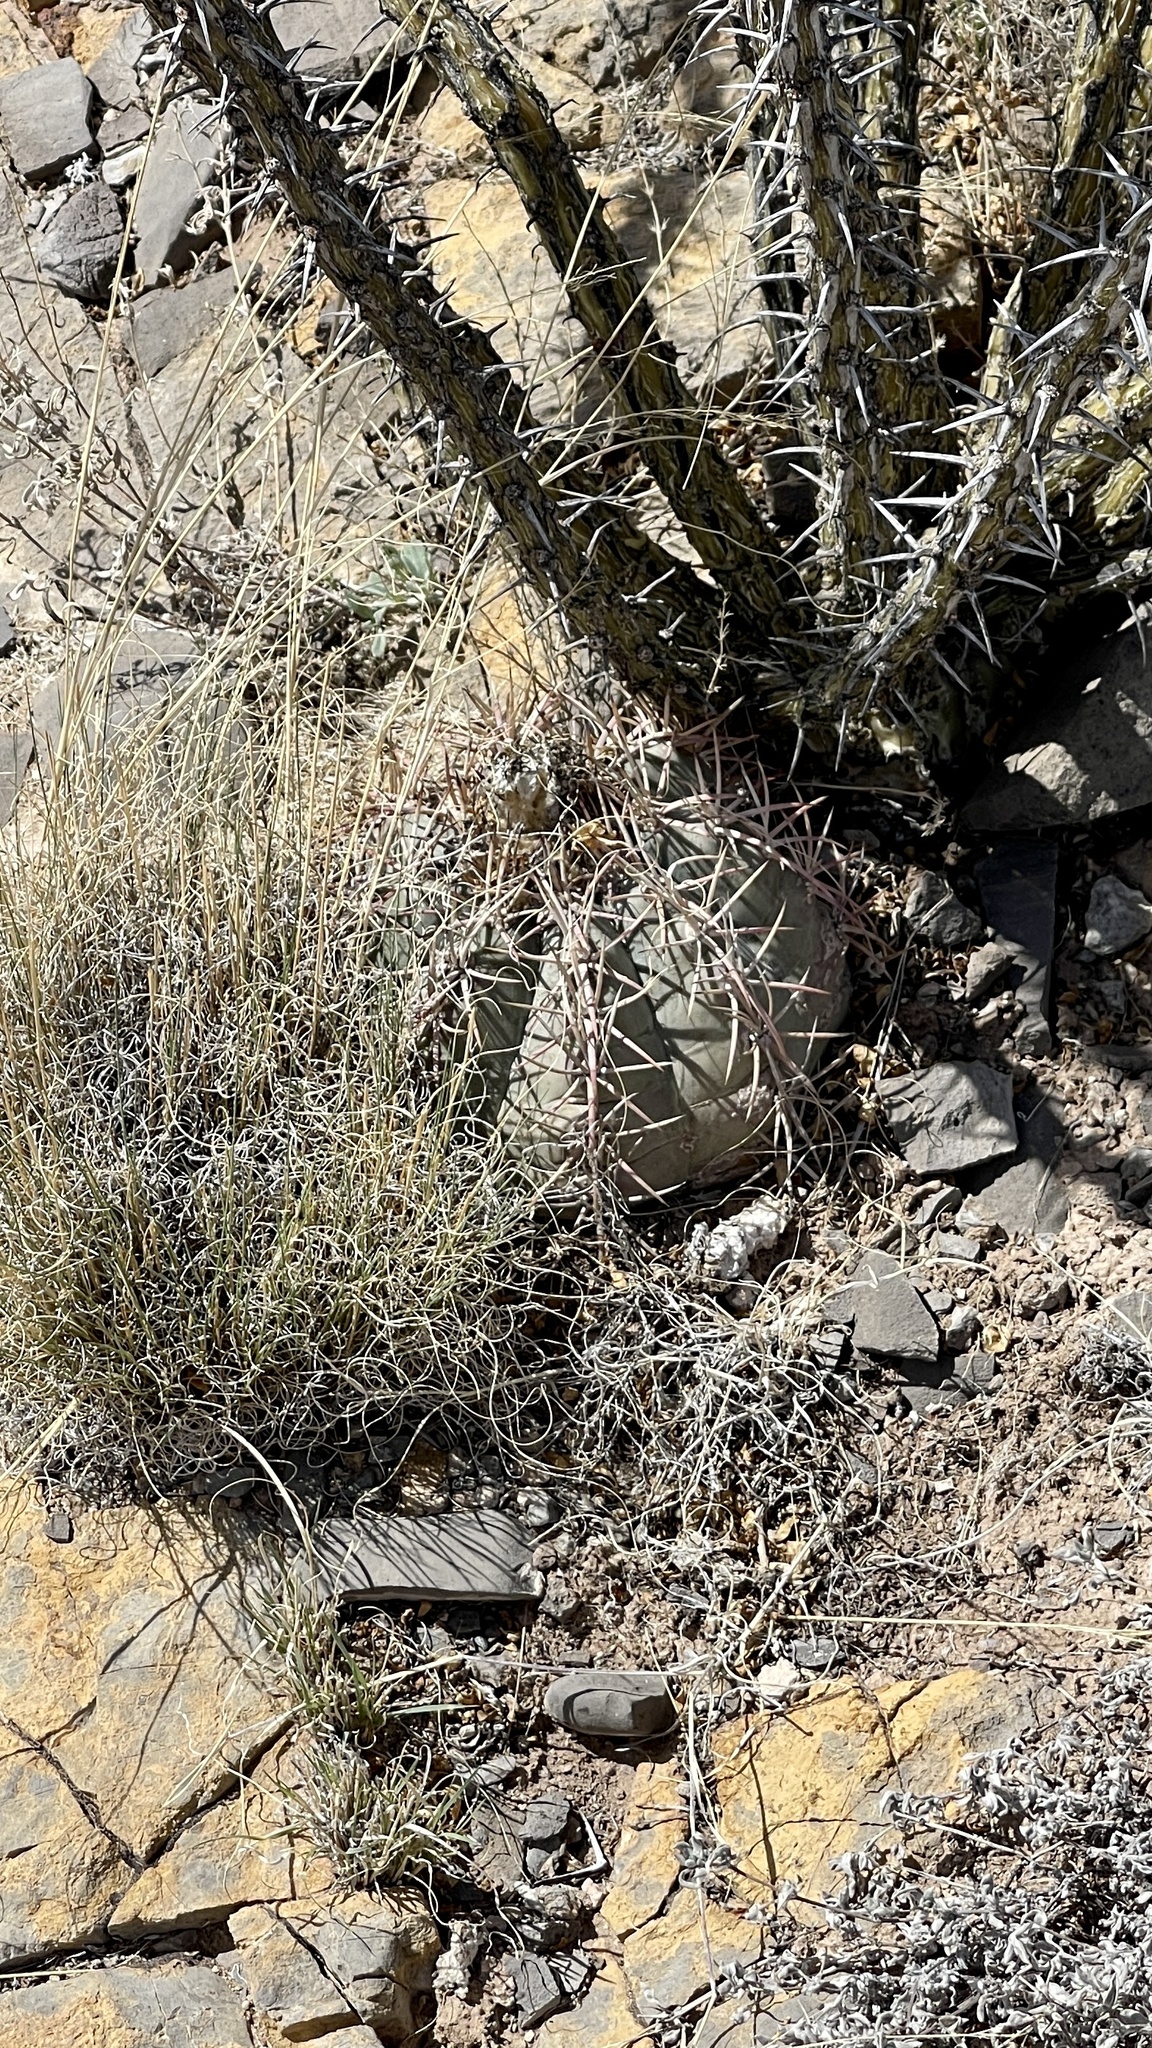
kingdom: Plantae
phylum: Tracheophyta
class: Magnoliopsida
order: Caryophyllales
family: Cactaceae
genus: Echinocactus
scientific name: Echinocactus horizonthalonius
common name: Devilshead
